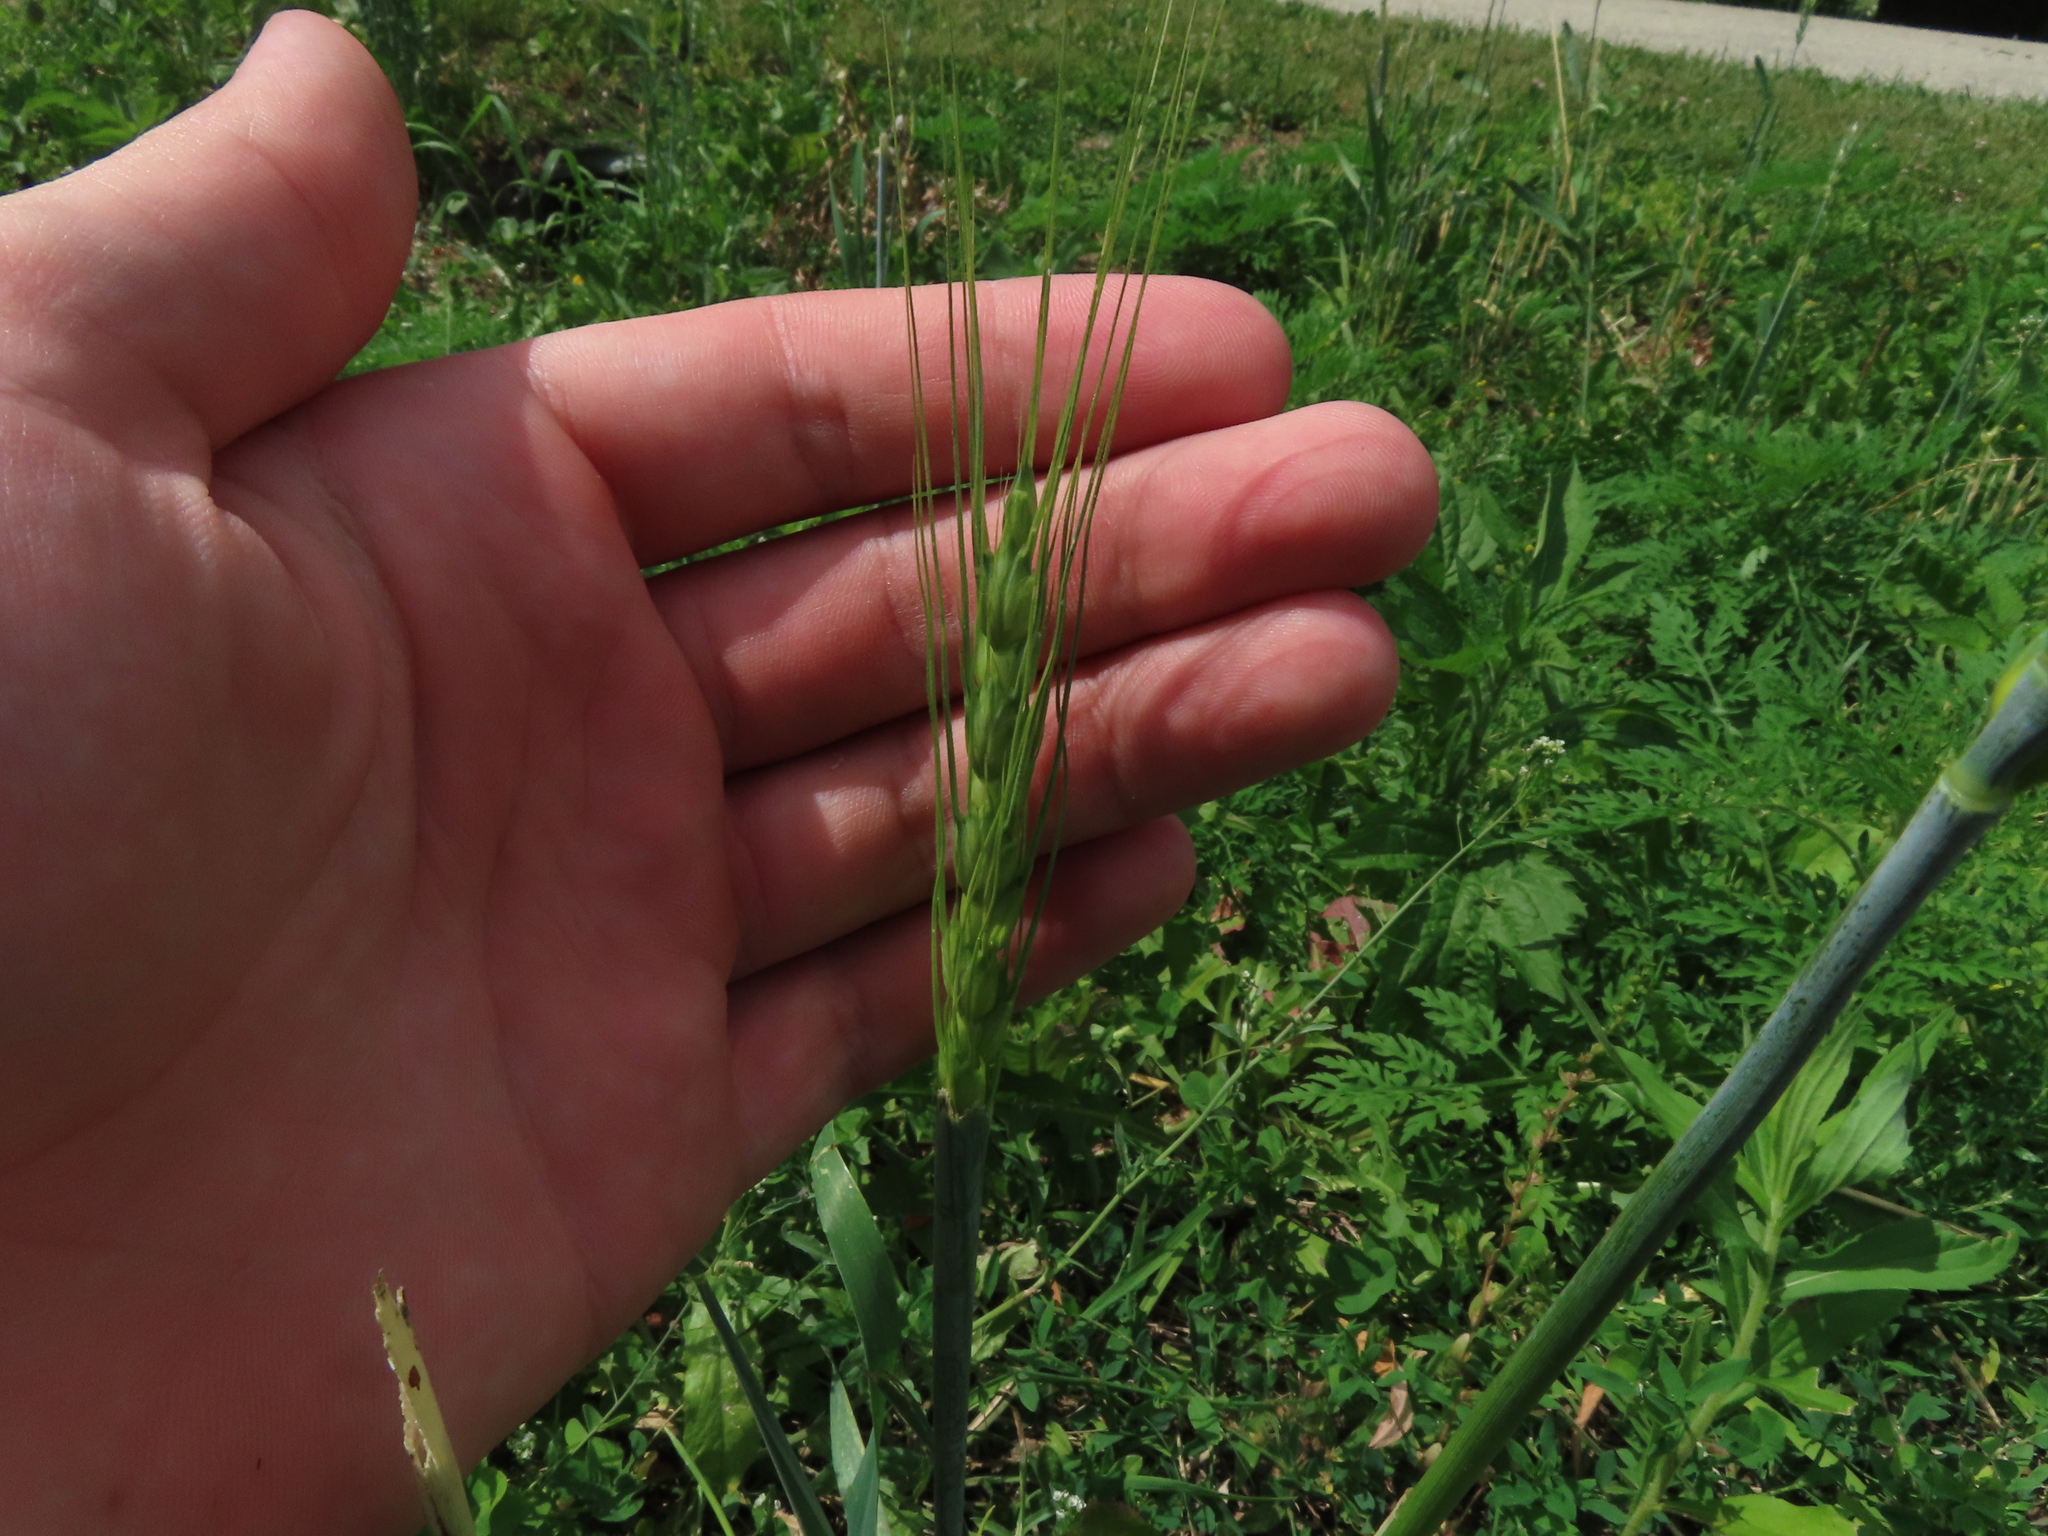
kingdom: Plantae
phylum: Tracheophyta
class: Liliopsida
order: Poales
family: Poaceae
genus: Triticum
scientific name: Triticum aestivum
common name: Common wheat
